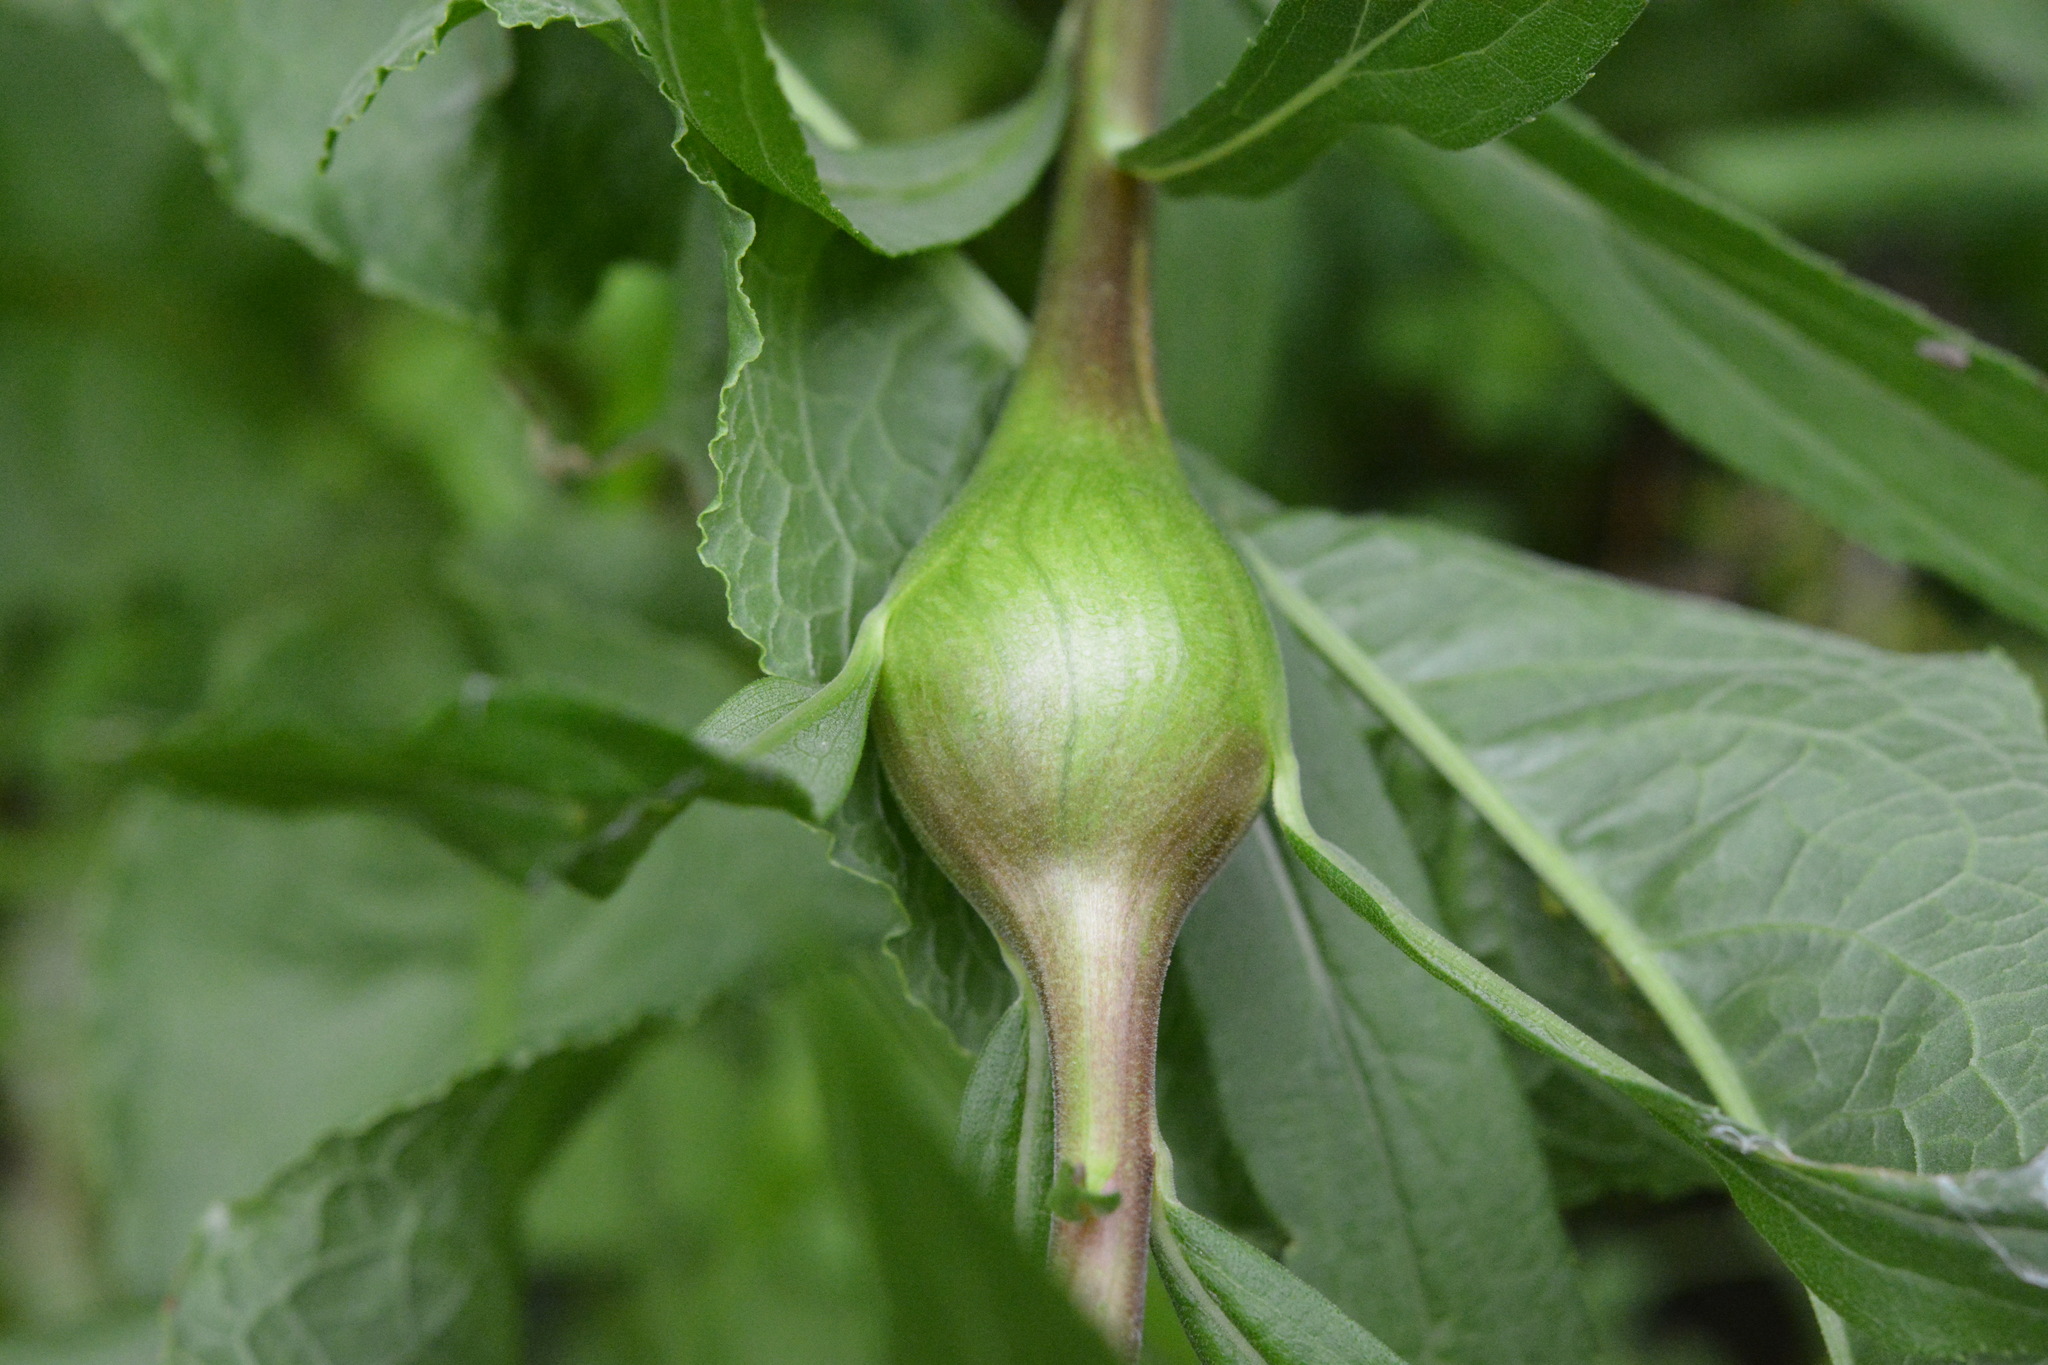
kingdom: Animalia
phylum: Arthropoda
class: Insecta
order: Diptera
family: Tephritidae
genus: Eurosta
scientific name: Eurosta solidaginis
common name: Goldenrod gall fly
